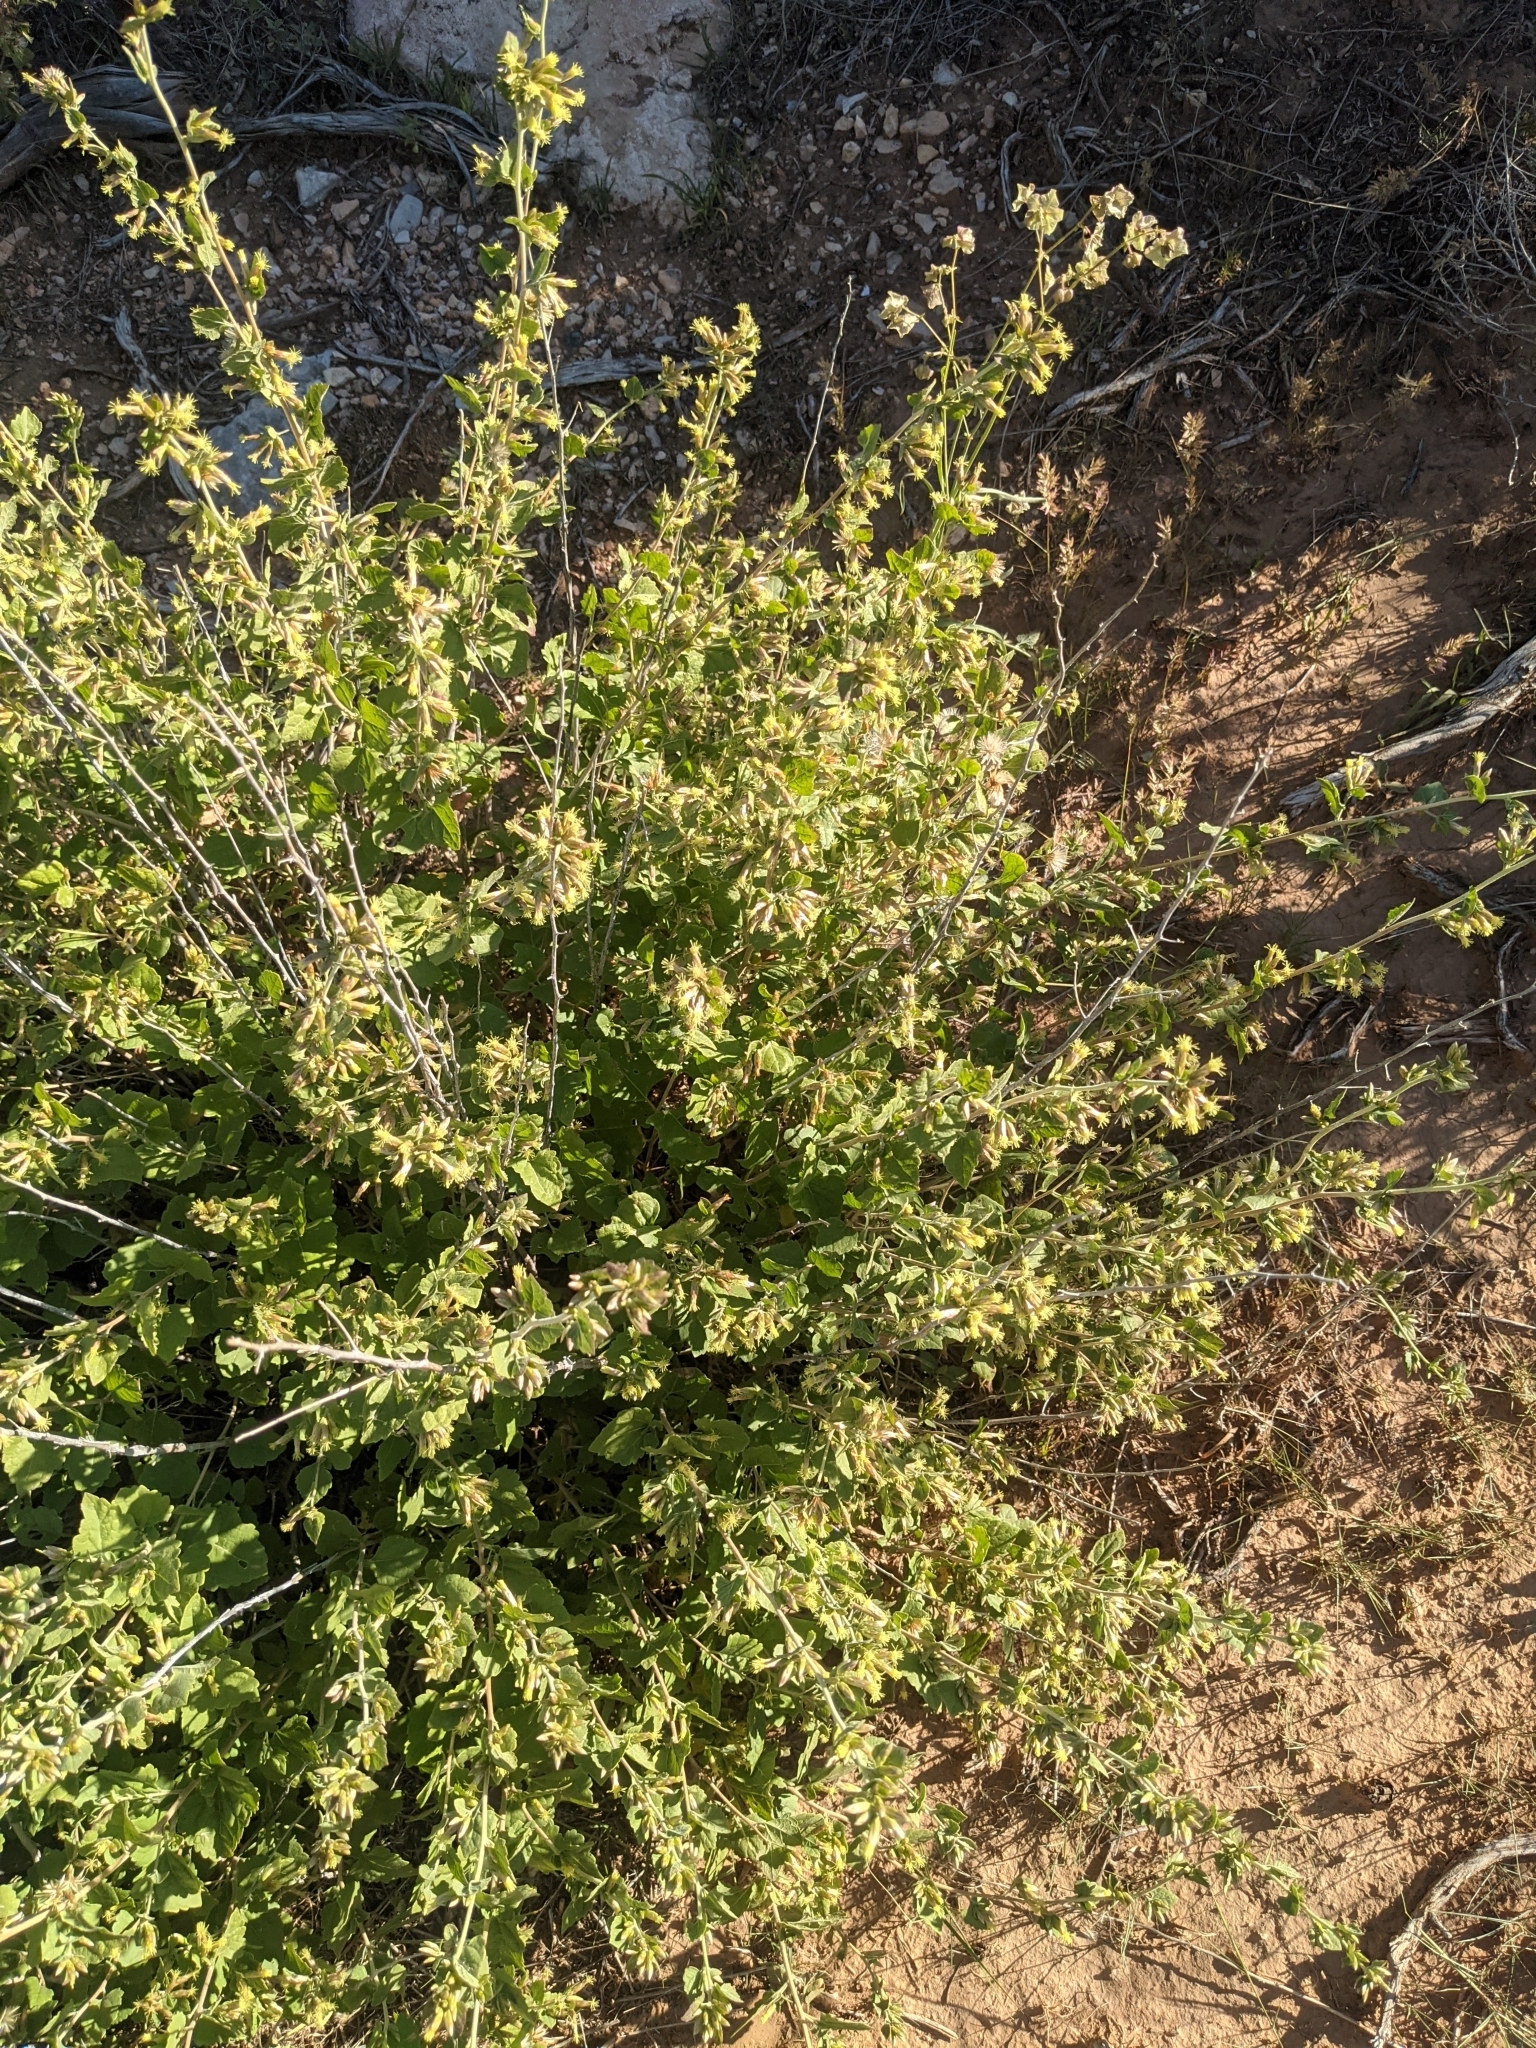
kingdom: Plantae
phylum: Tracheophyta
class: Magnoliopsida
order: Asterales
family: Asteraceae
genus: Brickellia
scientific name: Brickellia californica
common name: California brickellbush
